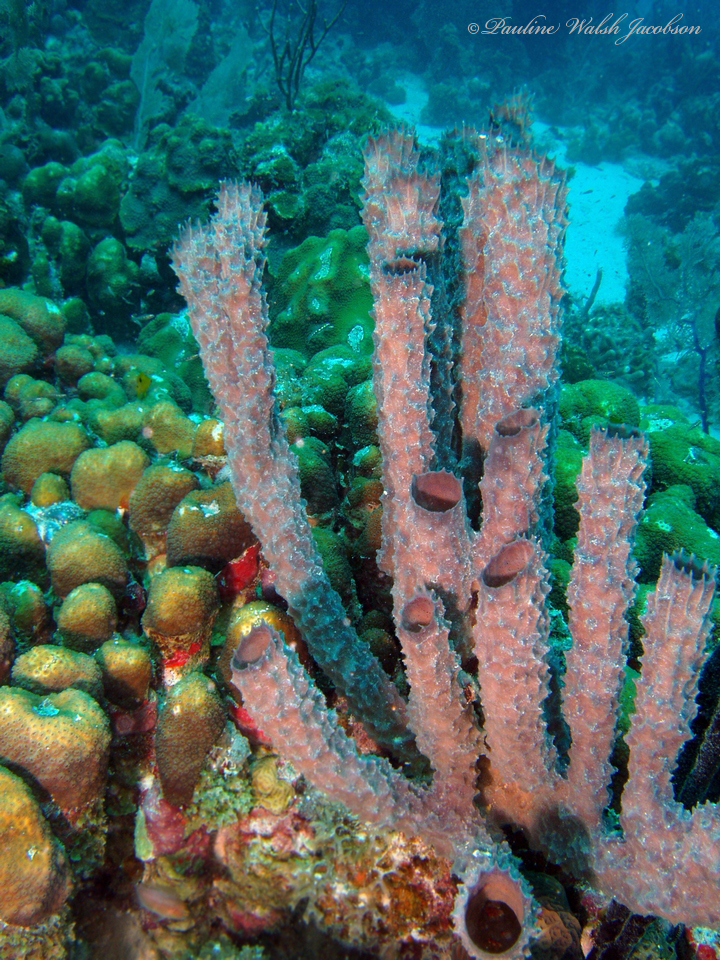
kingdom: Animalia
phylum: Porifera
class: Demospongiae
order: Haplosclerida
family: Callyspongiidae
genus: Callyspongia
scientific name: Callyspongia aculeata
